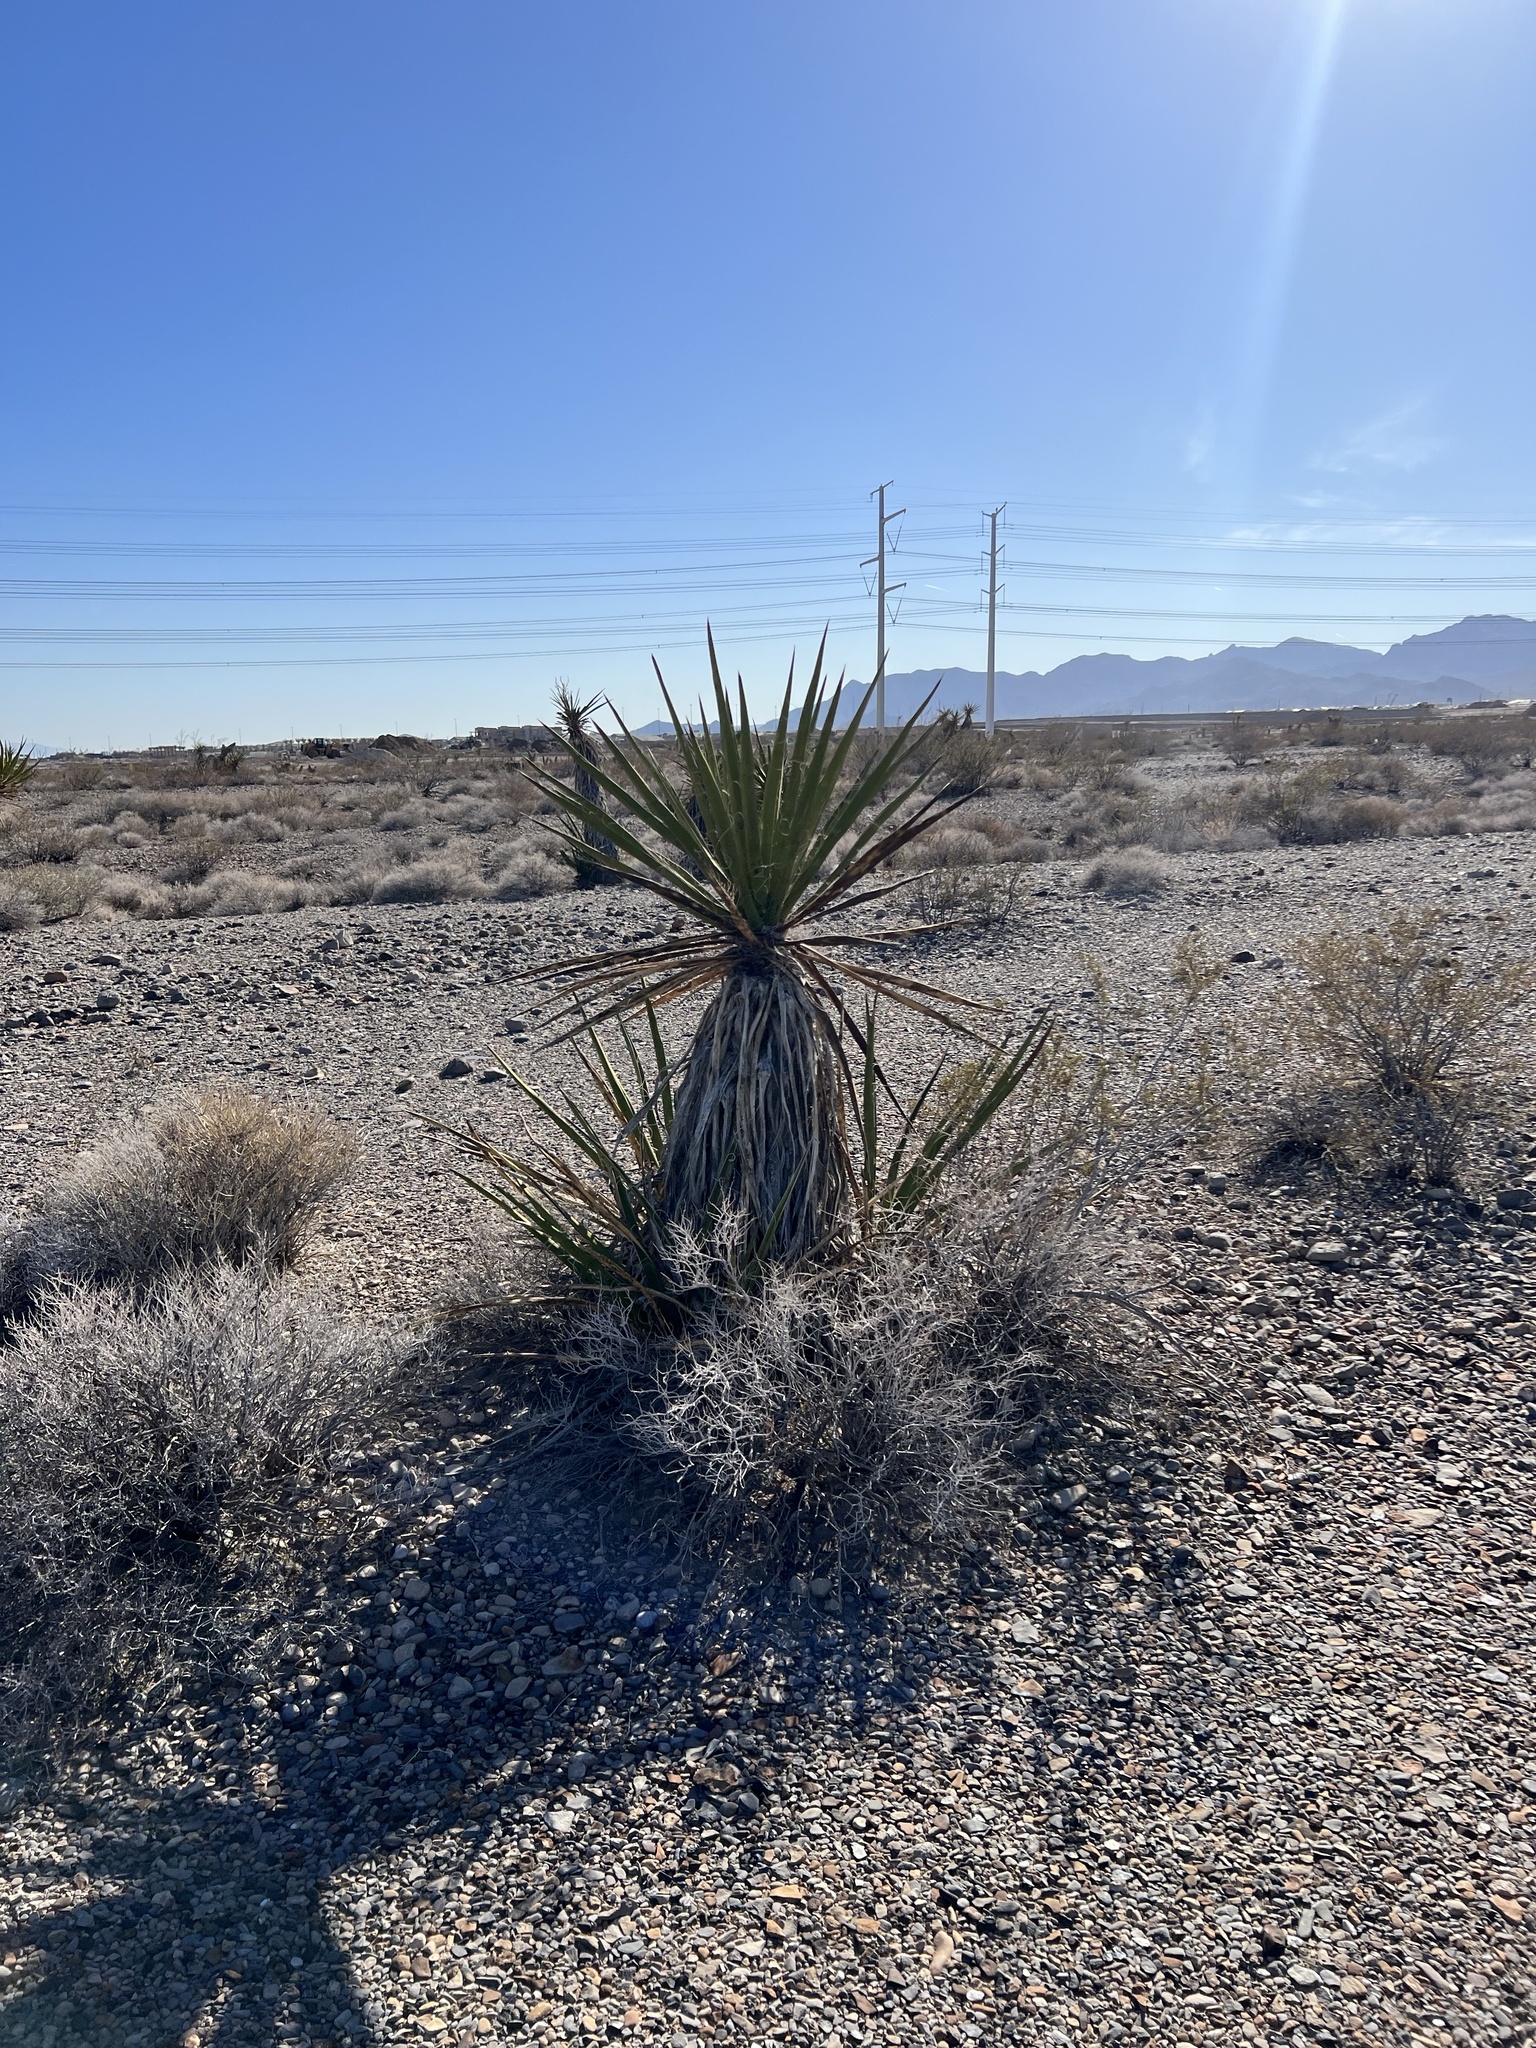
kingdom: Plantae
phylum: Tracheophyta
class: Liliopsida
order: Asparagales
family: Asparagaceae
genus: Yucca
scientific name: Yucca schidigera
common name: Mojave yucca
